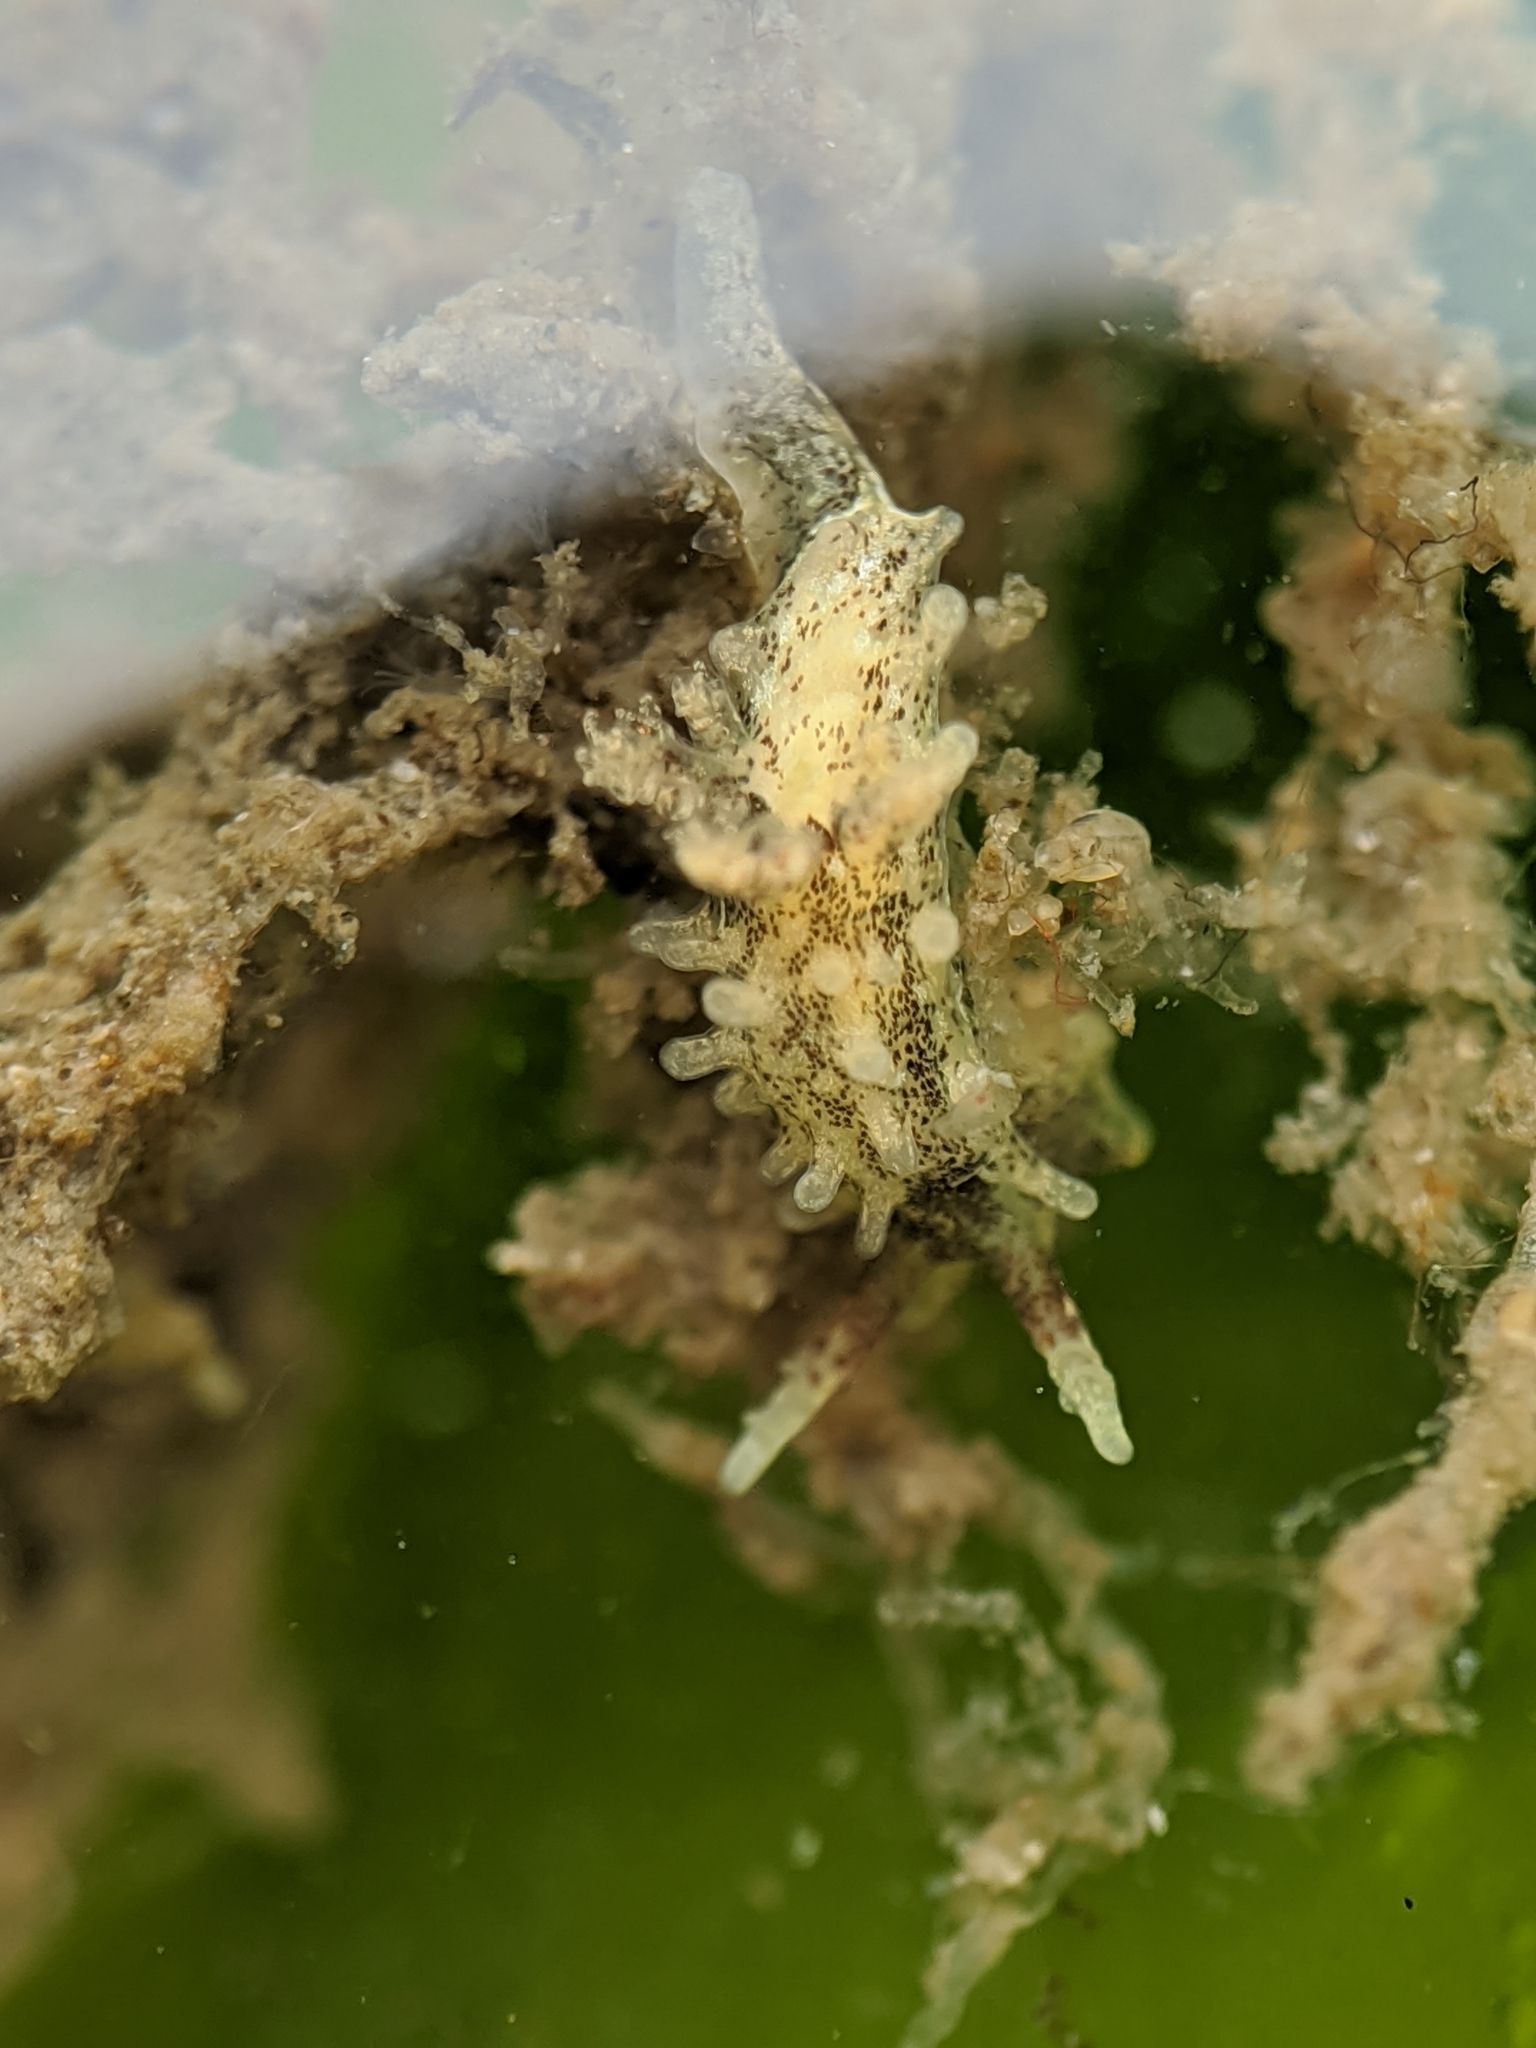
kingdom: Animalia
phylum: Mollusca
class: Gastropoda
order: Nudibranchia
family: Goniodorididae
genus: Okenia
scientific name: Okenia
